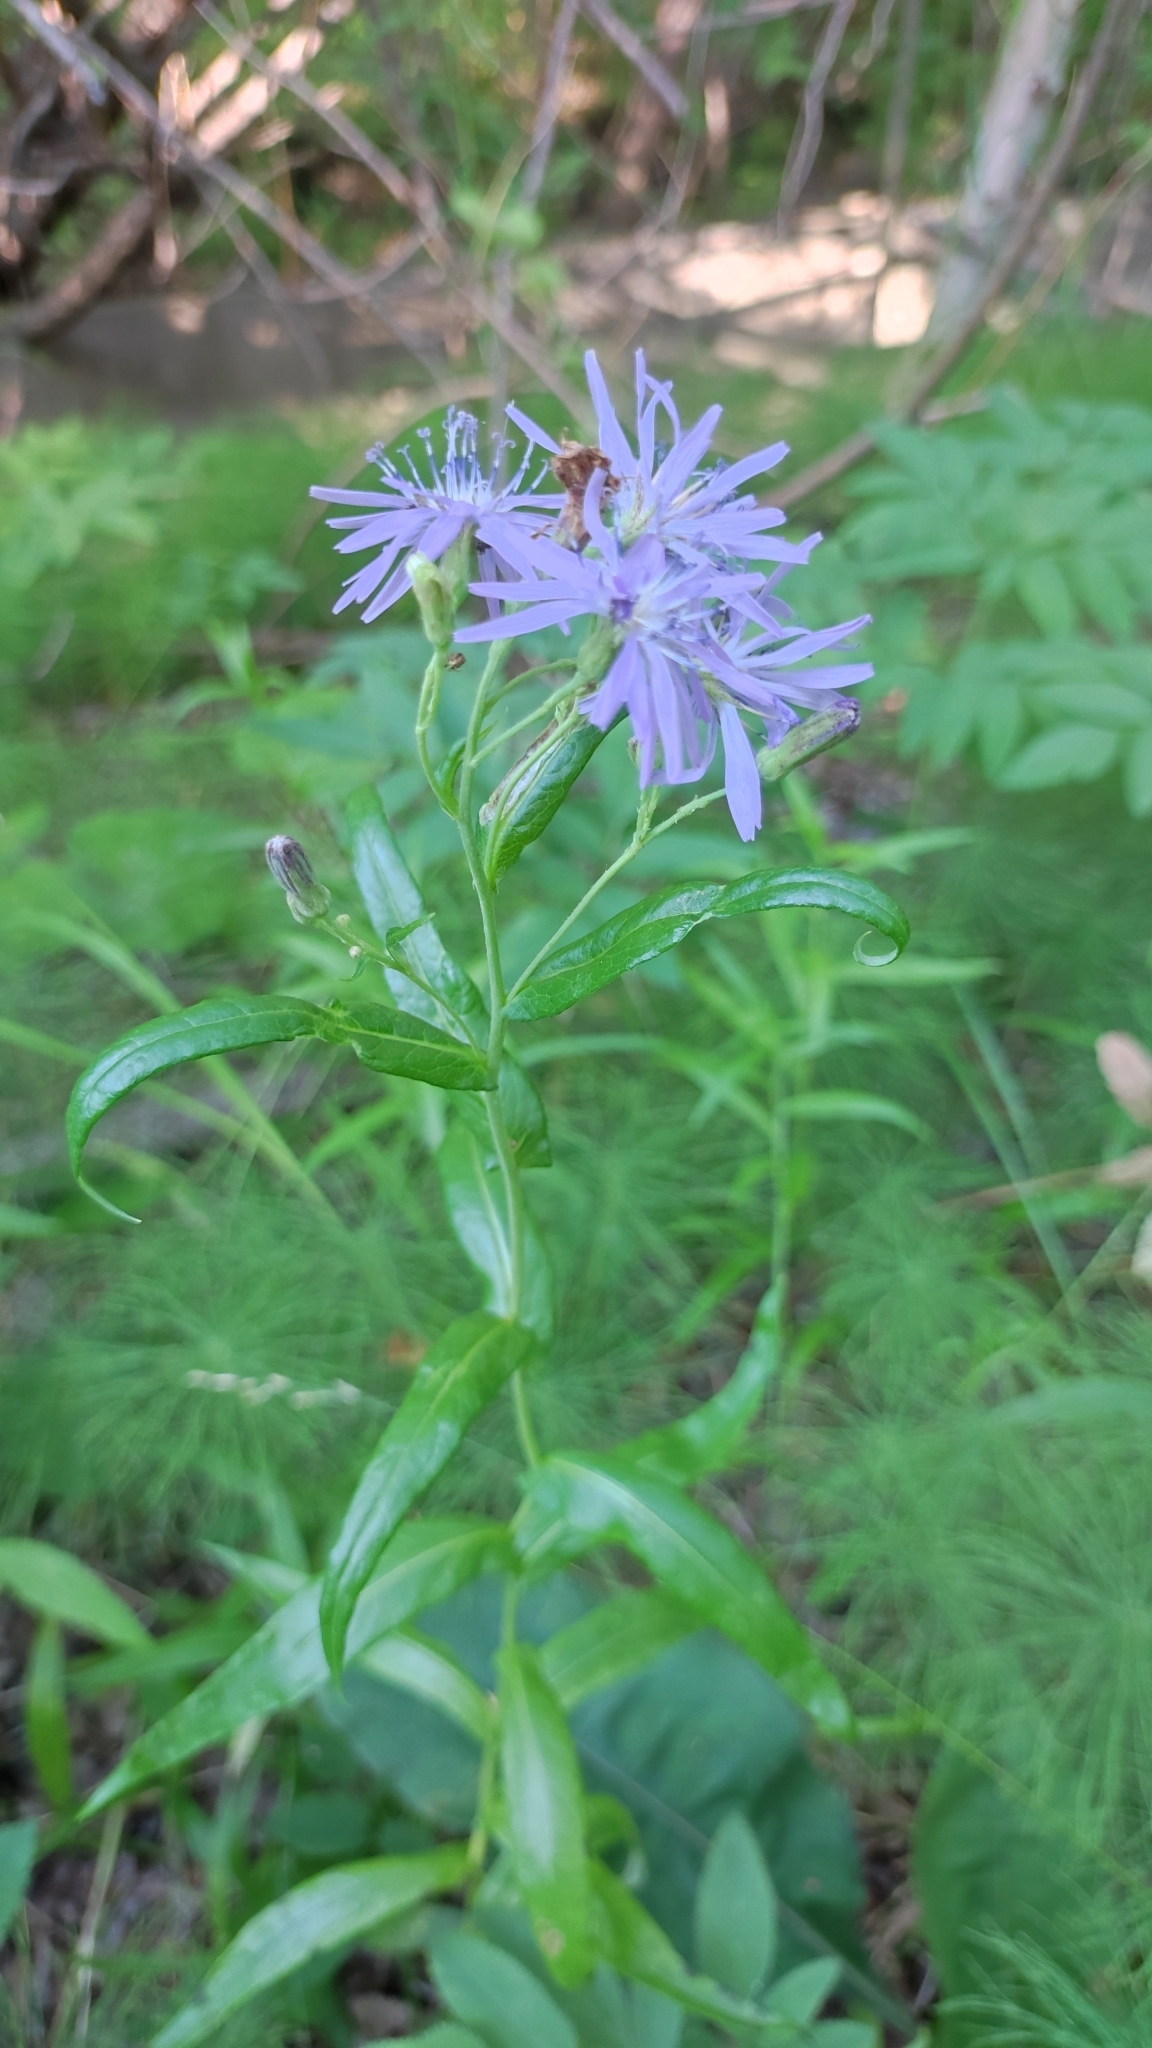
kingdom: Plantae
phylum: Tracheophyta
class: Magnoliopsida
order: Asterales
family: Asteraceae
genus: Lactuca
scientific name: Lactuca sibirica
